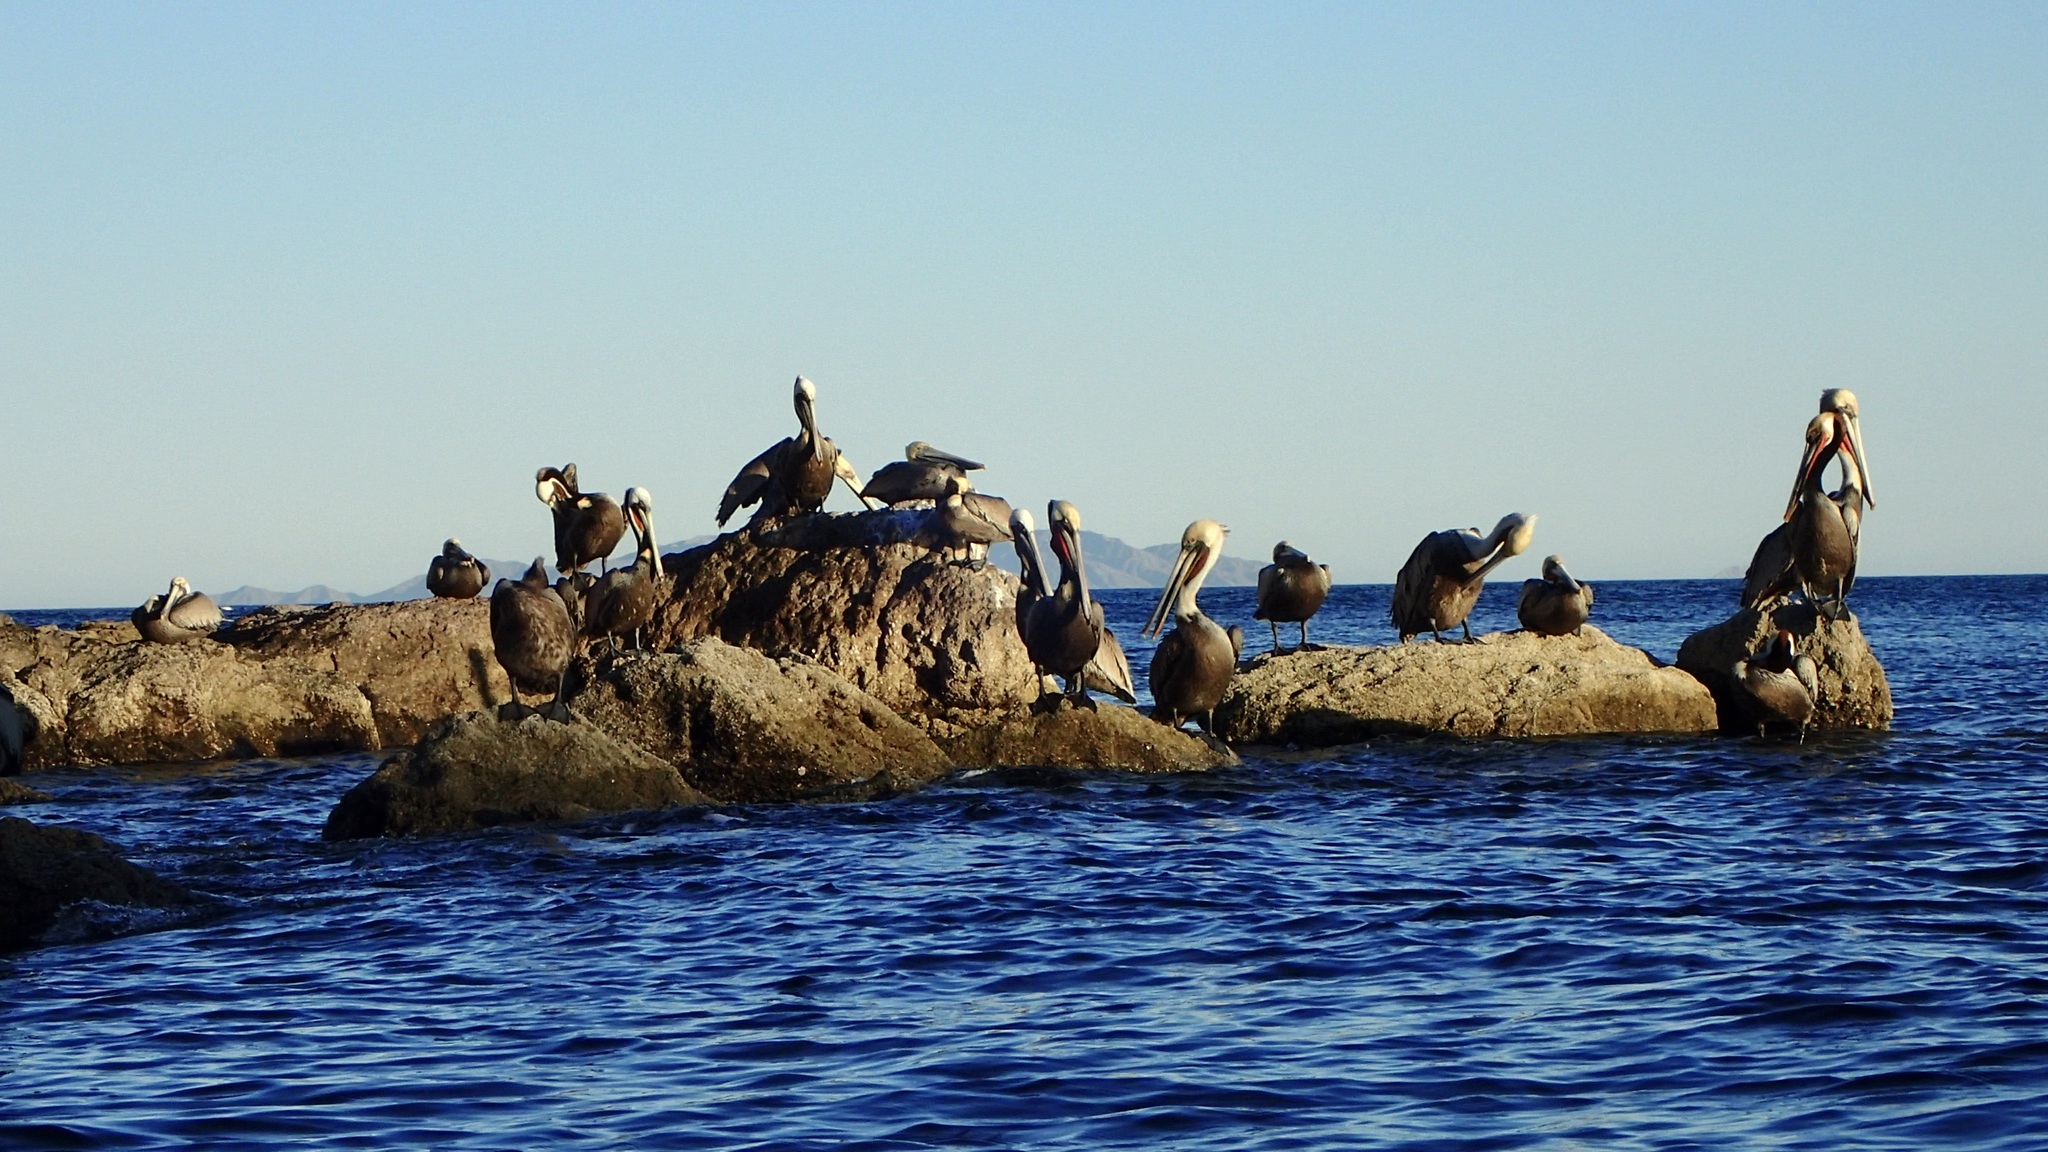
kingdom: Animalia
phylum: Chordata
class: Aves
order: Pelecaniformes
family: Pelecanidae
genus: Pelecanus
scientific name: Pelecanus occidentalis
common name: Brown pelican
